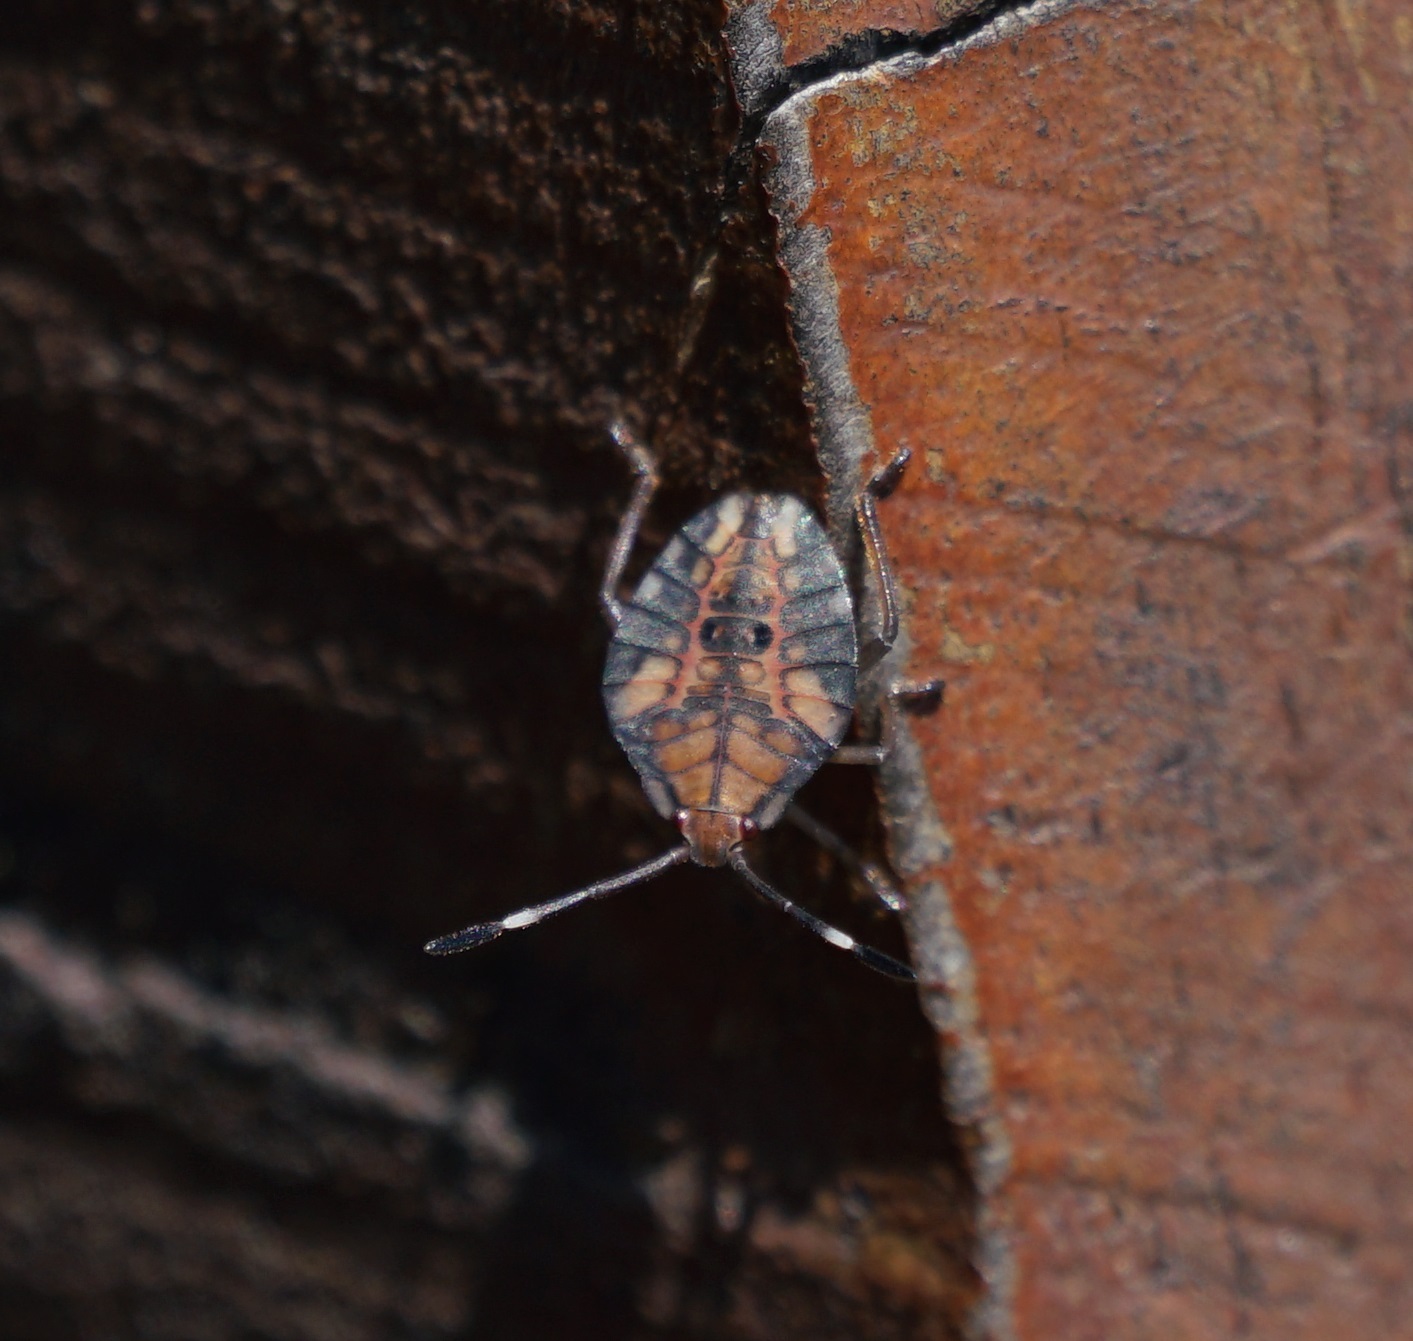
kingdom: Animalia
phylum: Arthropoda
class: Insecta
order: Hemiptera
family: Tessaratomidae
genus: Lyramorpha
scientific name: Lyramorpha rosea
